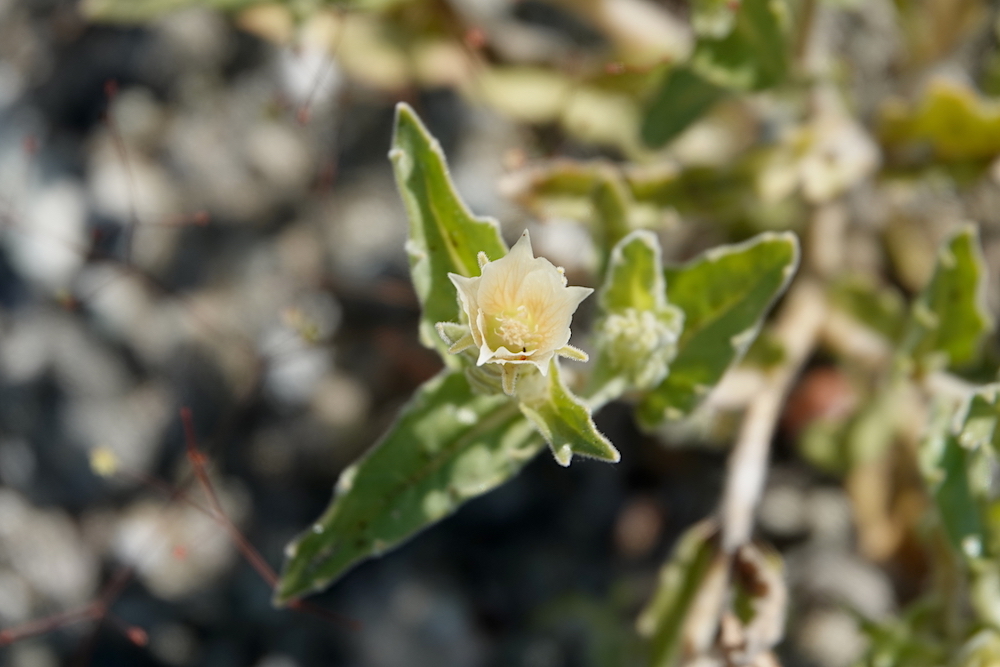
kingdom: Plantae
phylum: Tracheophyta
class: Magnoliopsida
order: Cornales
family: Loasaceae
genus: Mentzelia
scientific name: Mentzelia involucrata
